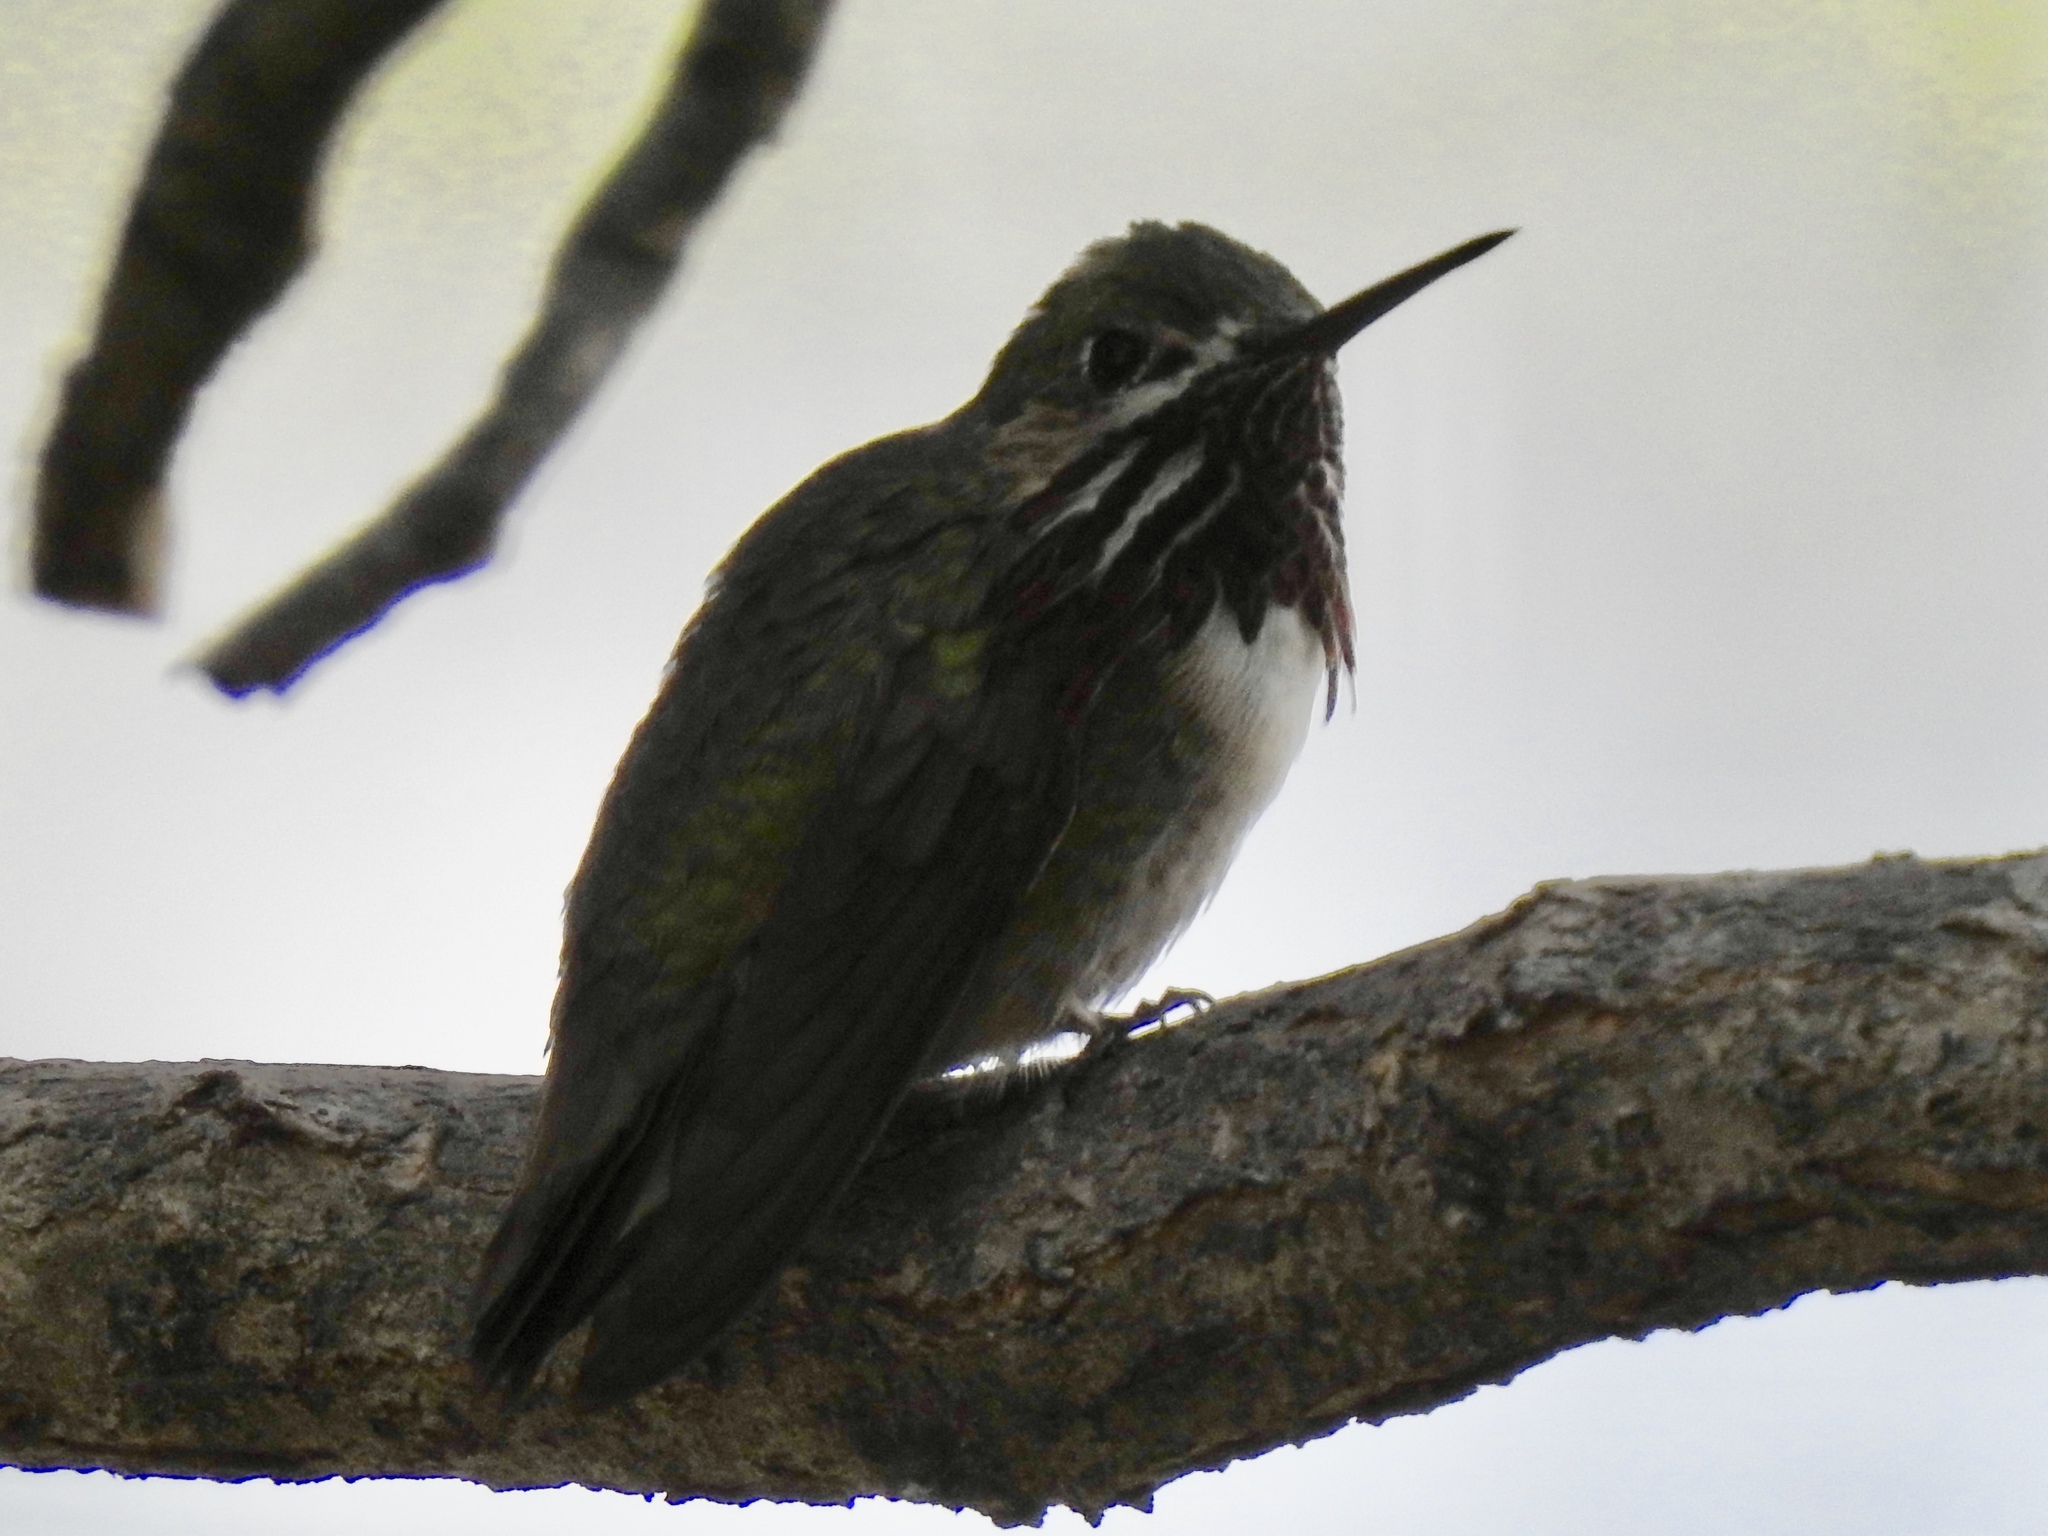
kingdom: Animalia
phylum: Chordata
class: Aves
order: Apodiformes
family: Trochilidae
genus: Selasphorus
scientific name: Selasphorus calliope
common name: Calliope hummingbird
